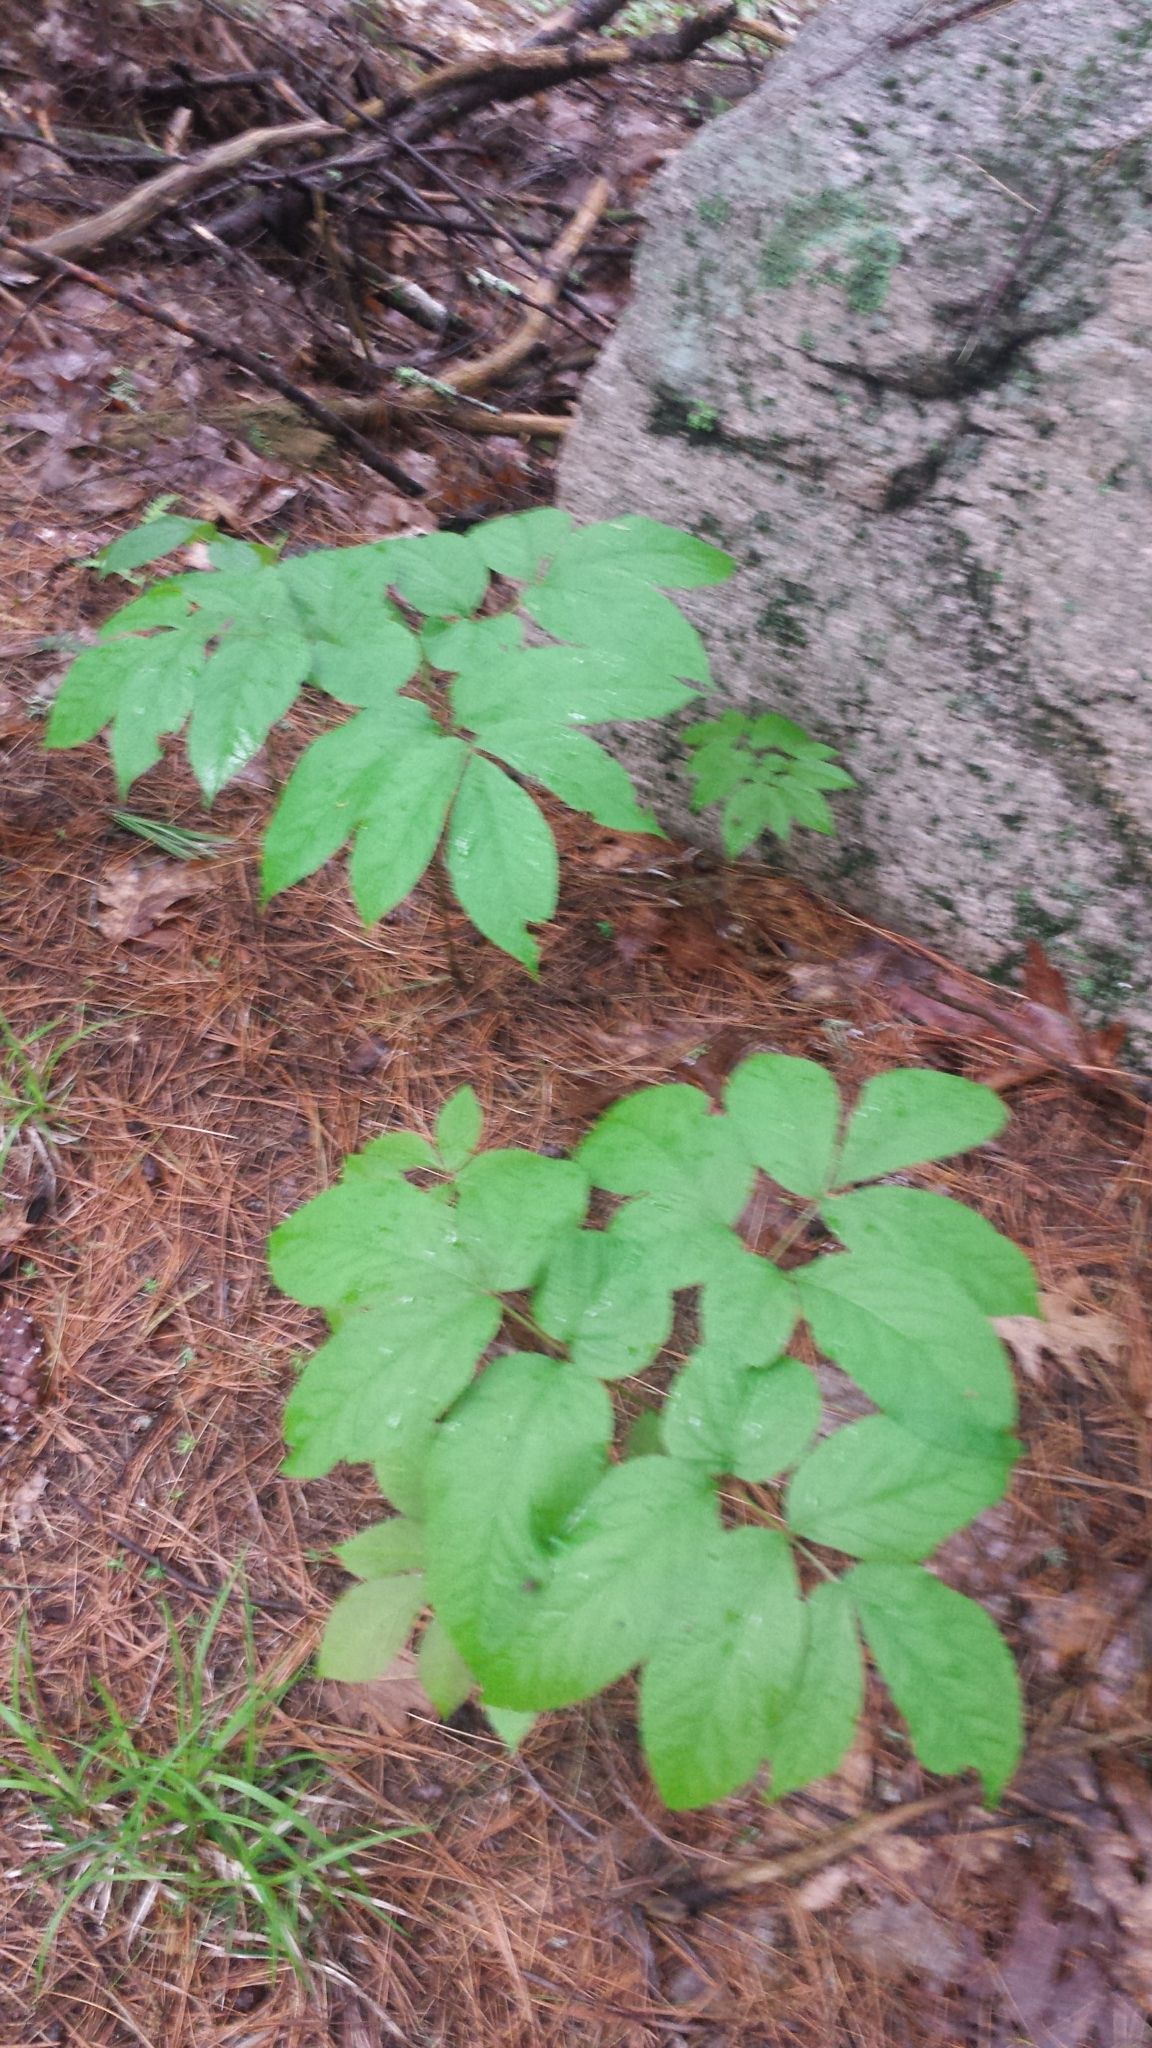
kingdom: Plantae
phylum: Tracheophyta
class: Magnoliopsida
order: Apiales
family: Araliaceae
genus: Aralia
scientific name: Aralia nudicaulis
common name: Wild sarsaparilla
